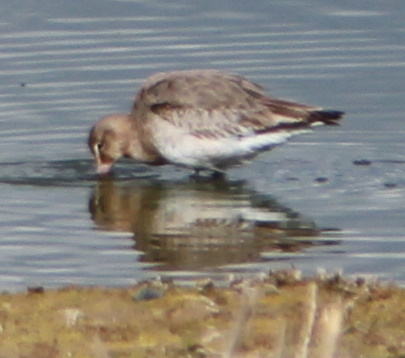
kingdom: Animalia
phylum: Chordata
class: Aves
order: Charadriiformes
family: Scolopacidae
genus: Limosa
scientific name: Limosa limosa
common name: Black-tailed godwit
